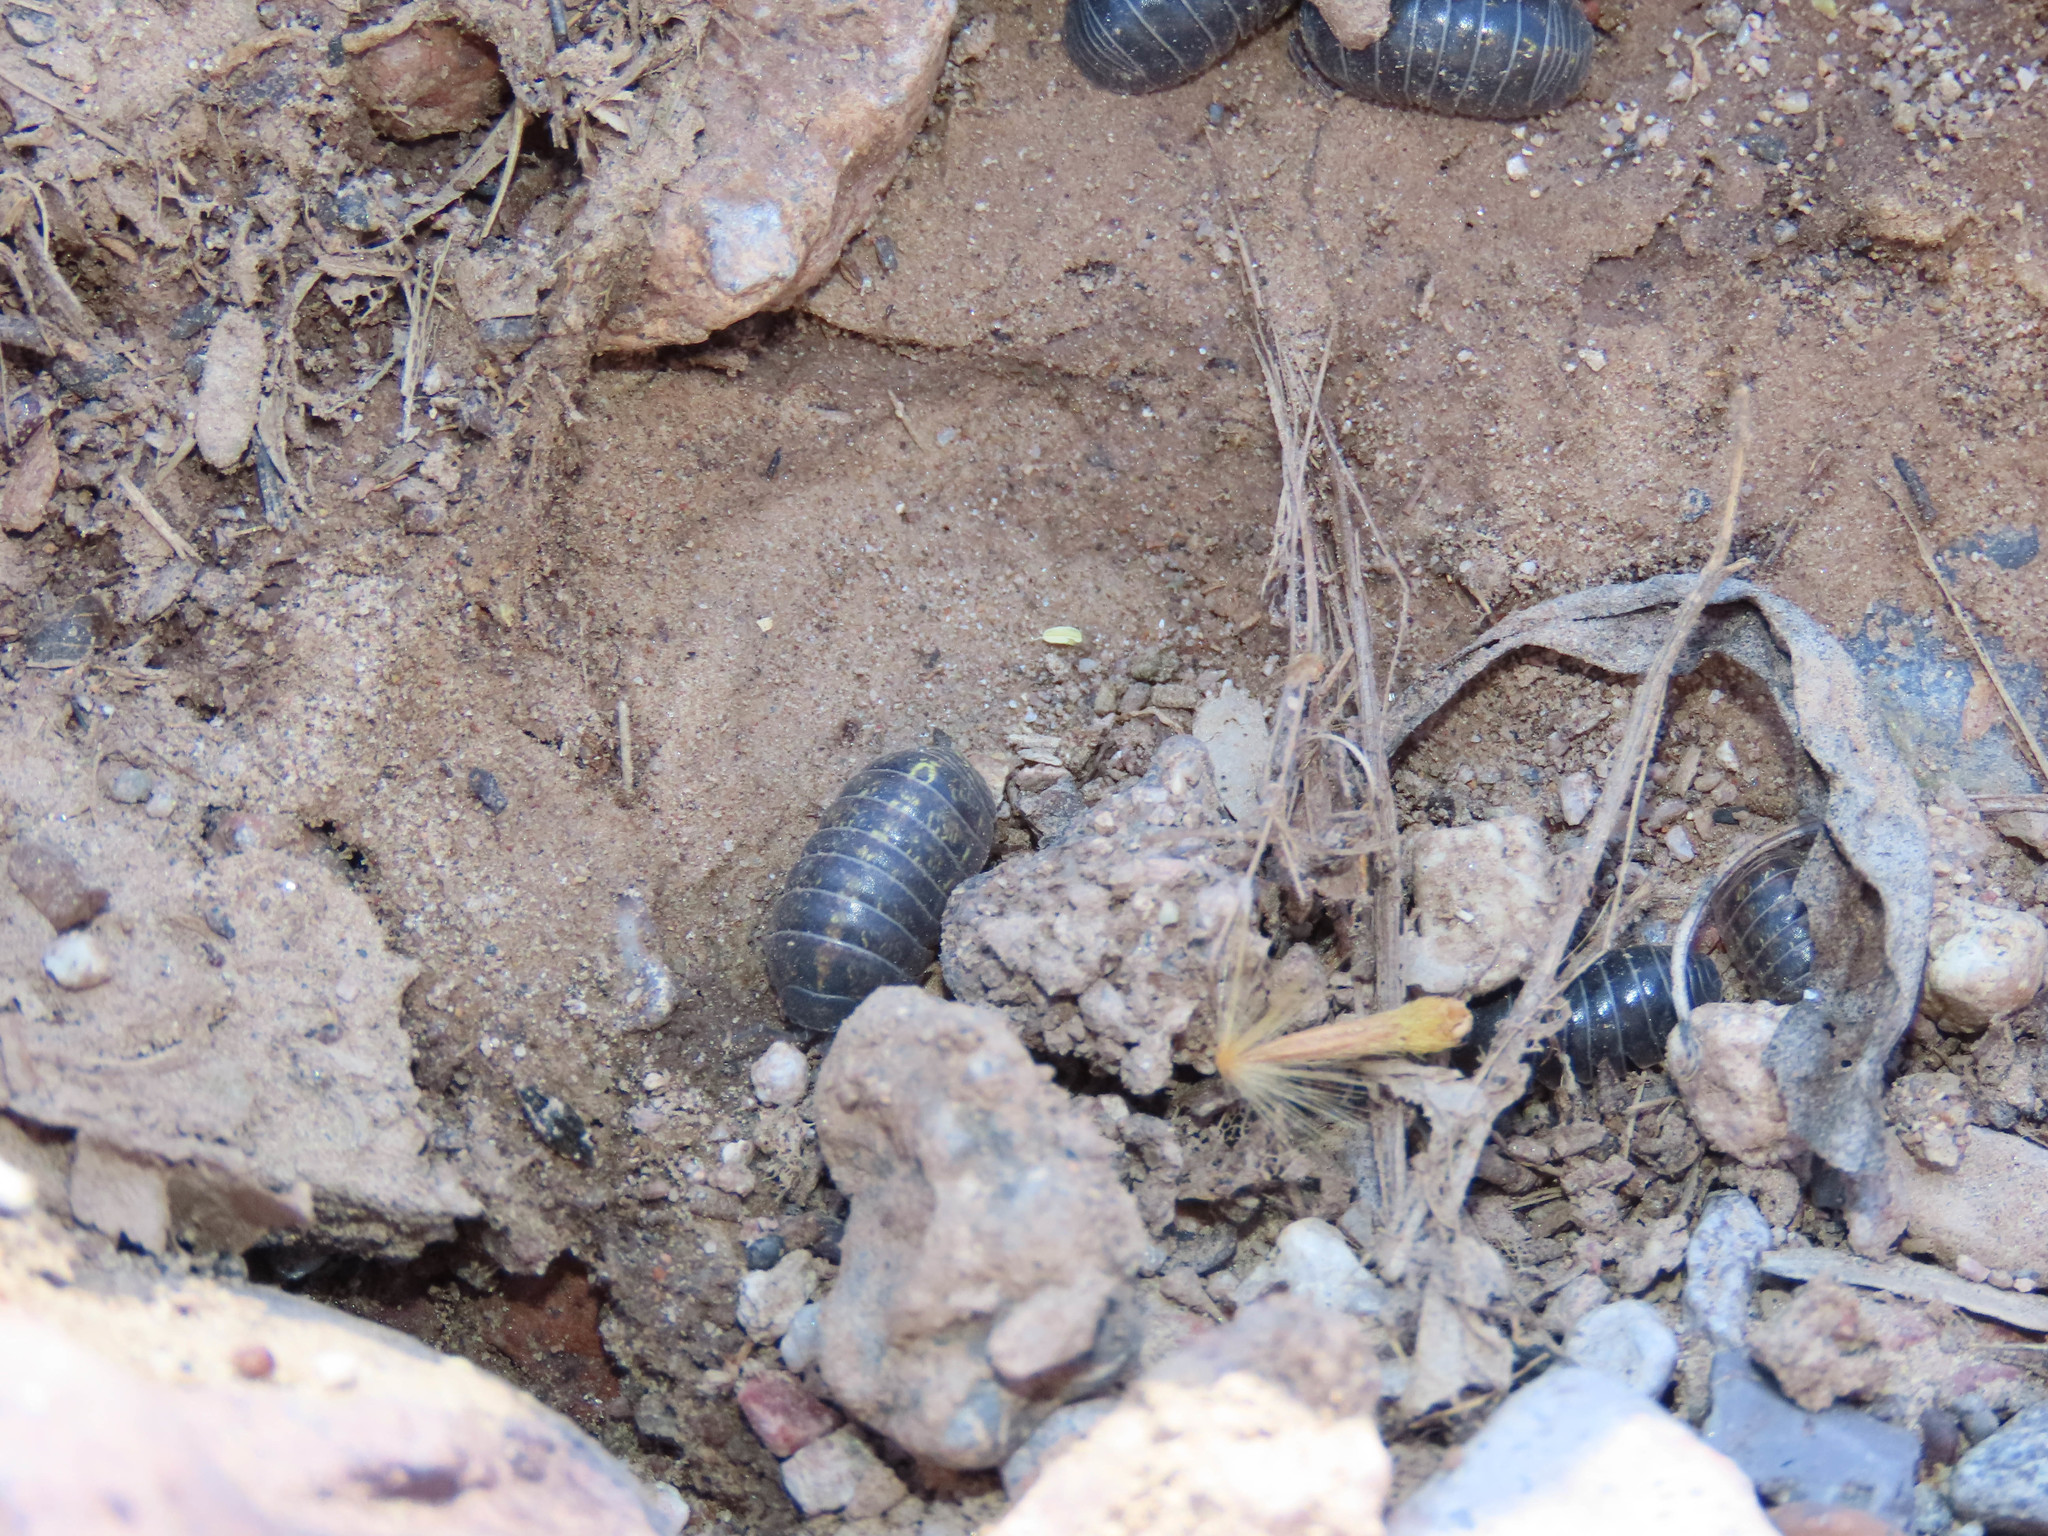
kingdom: Animalia
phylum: Arthropoda
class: Malacostraca
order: Isopoda
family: Armadillidiidae
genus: Armadillidium
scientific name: Armadillidium vulgare
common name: Common pill woodlouse
